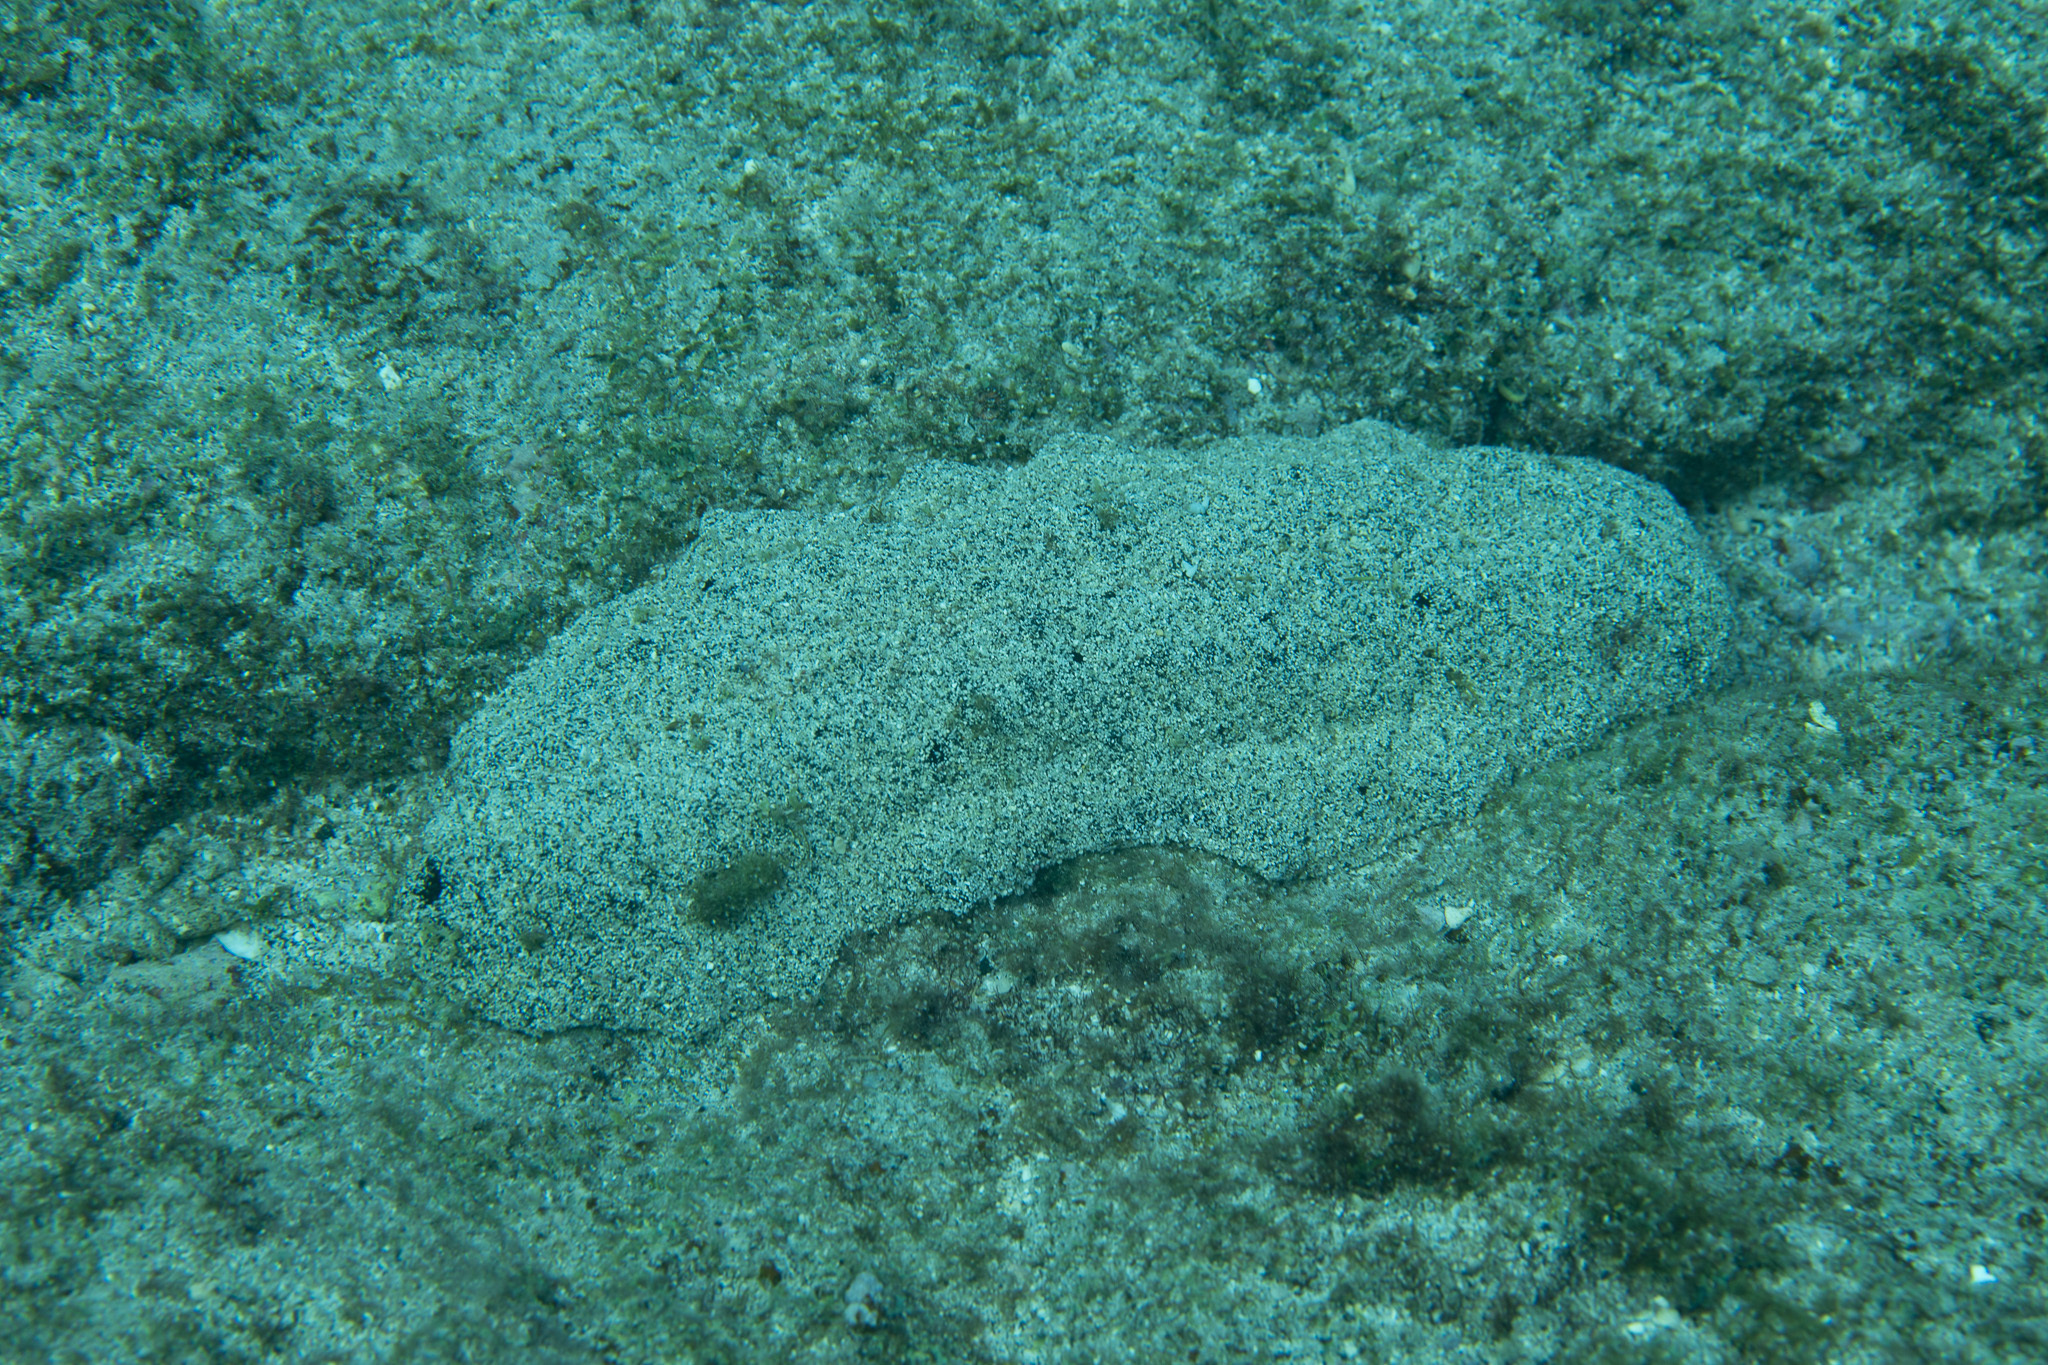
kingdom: Animalia
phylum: Echinodermata
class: Holothuroidea
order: Holothuriida
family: Holothuriidae
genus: Holothuria
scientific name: Holothuria whitmaei
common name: Black teatfish
